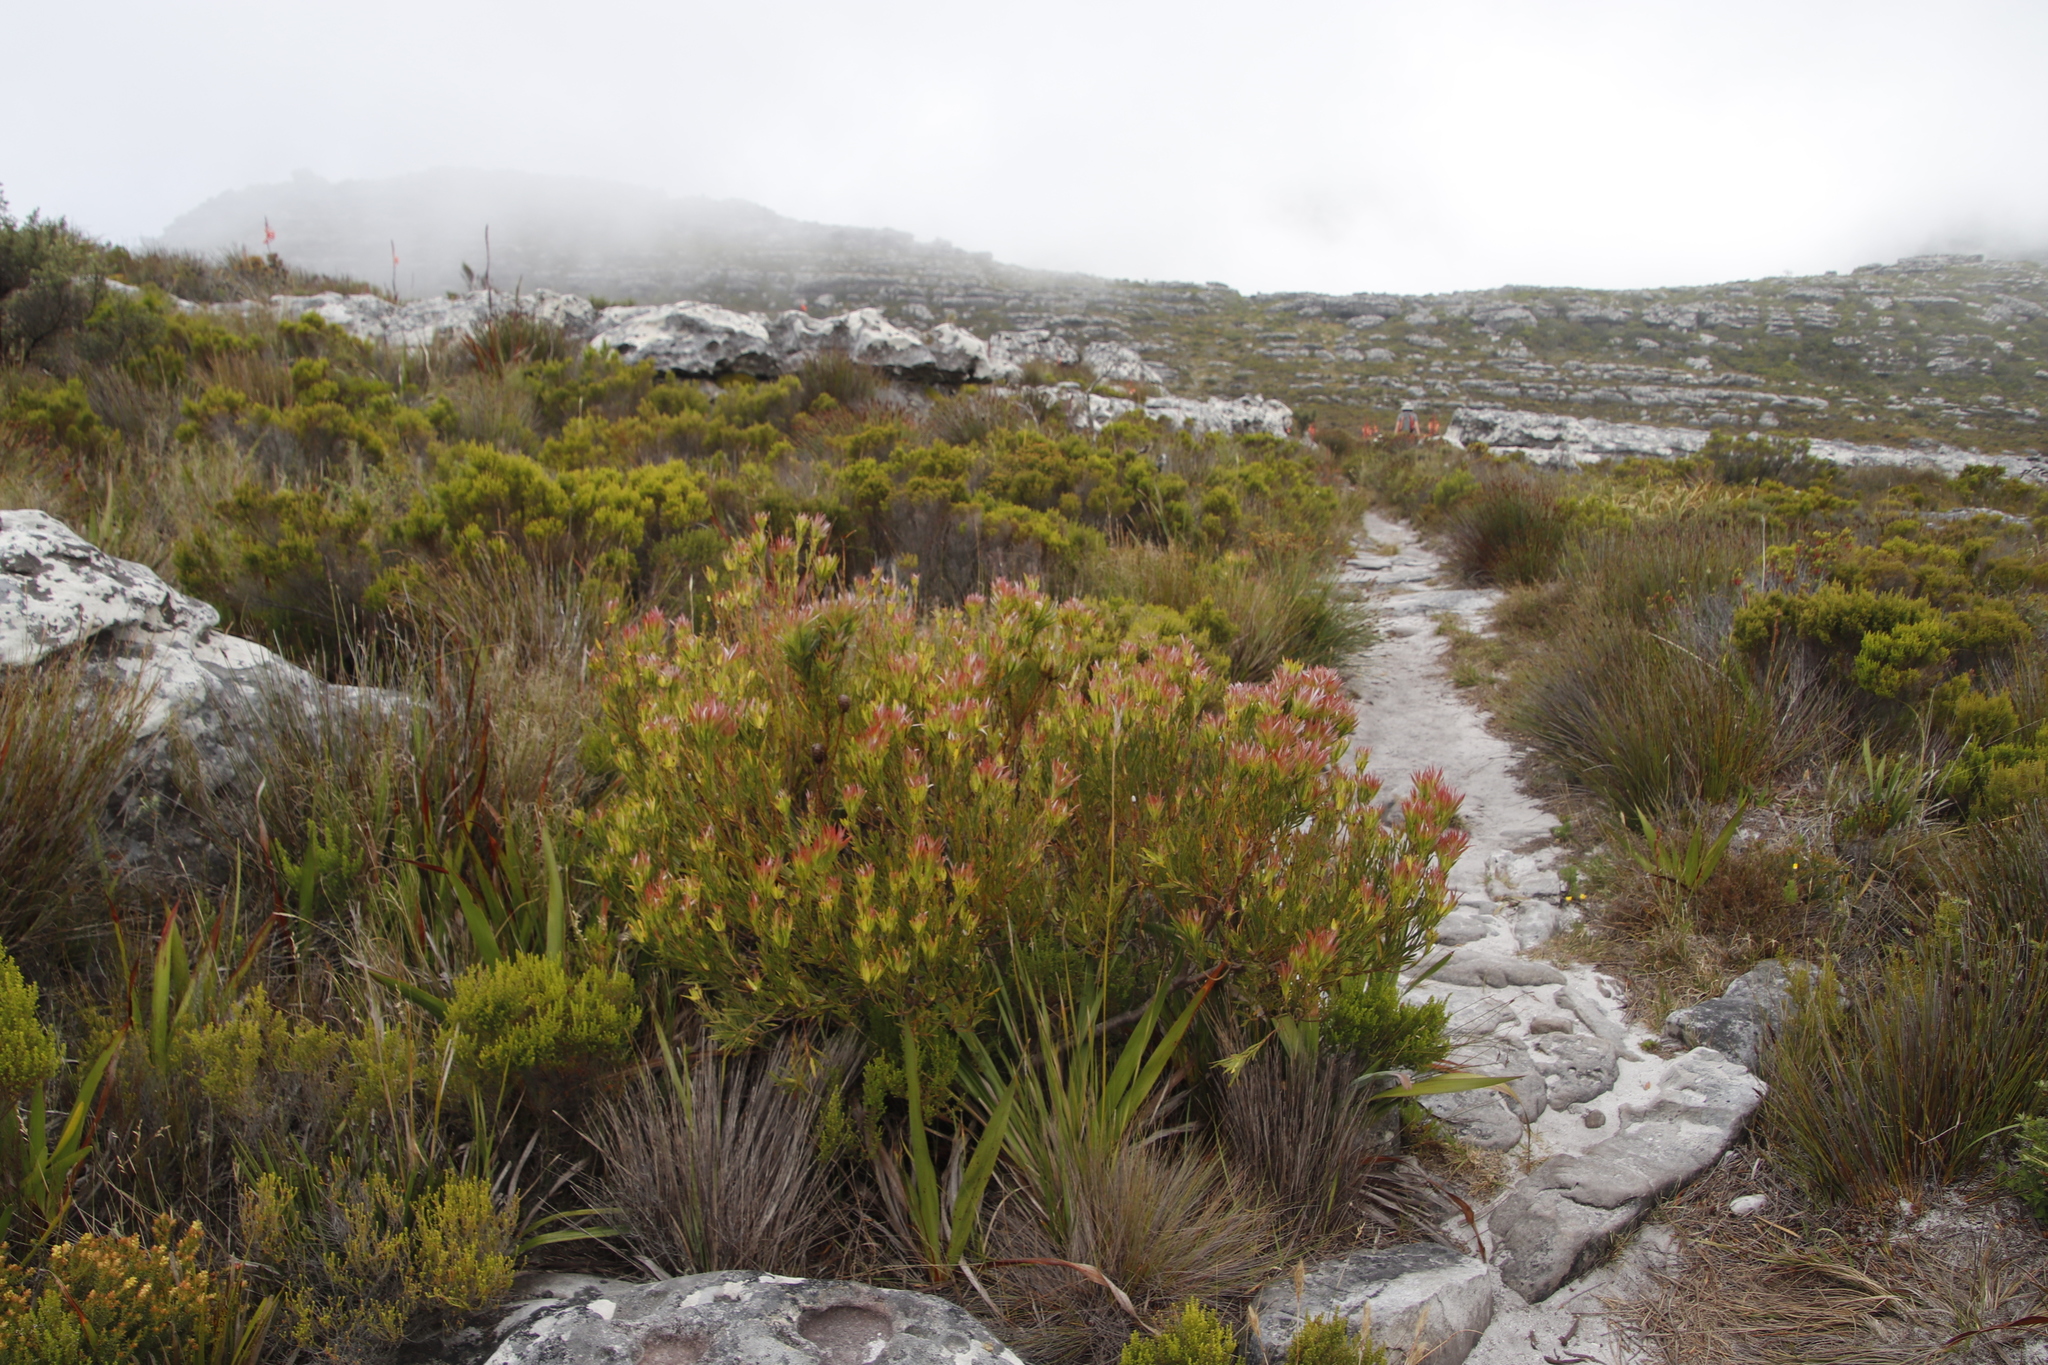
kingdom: Plantae
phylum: Tracheophyta
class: Magnoliopsida
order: Proteales
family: Proteaceae
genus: Leucadendron
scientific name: Leucadendron xanthoconus
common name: Sickle-leaf conebush
